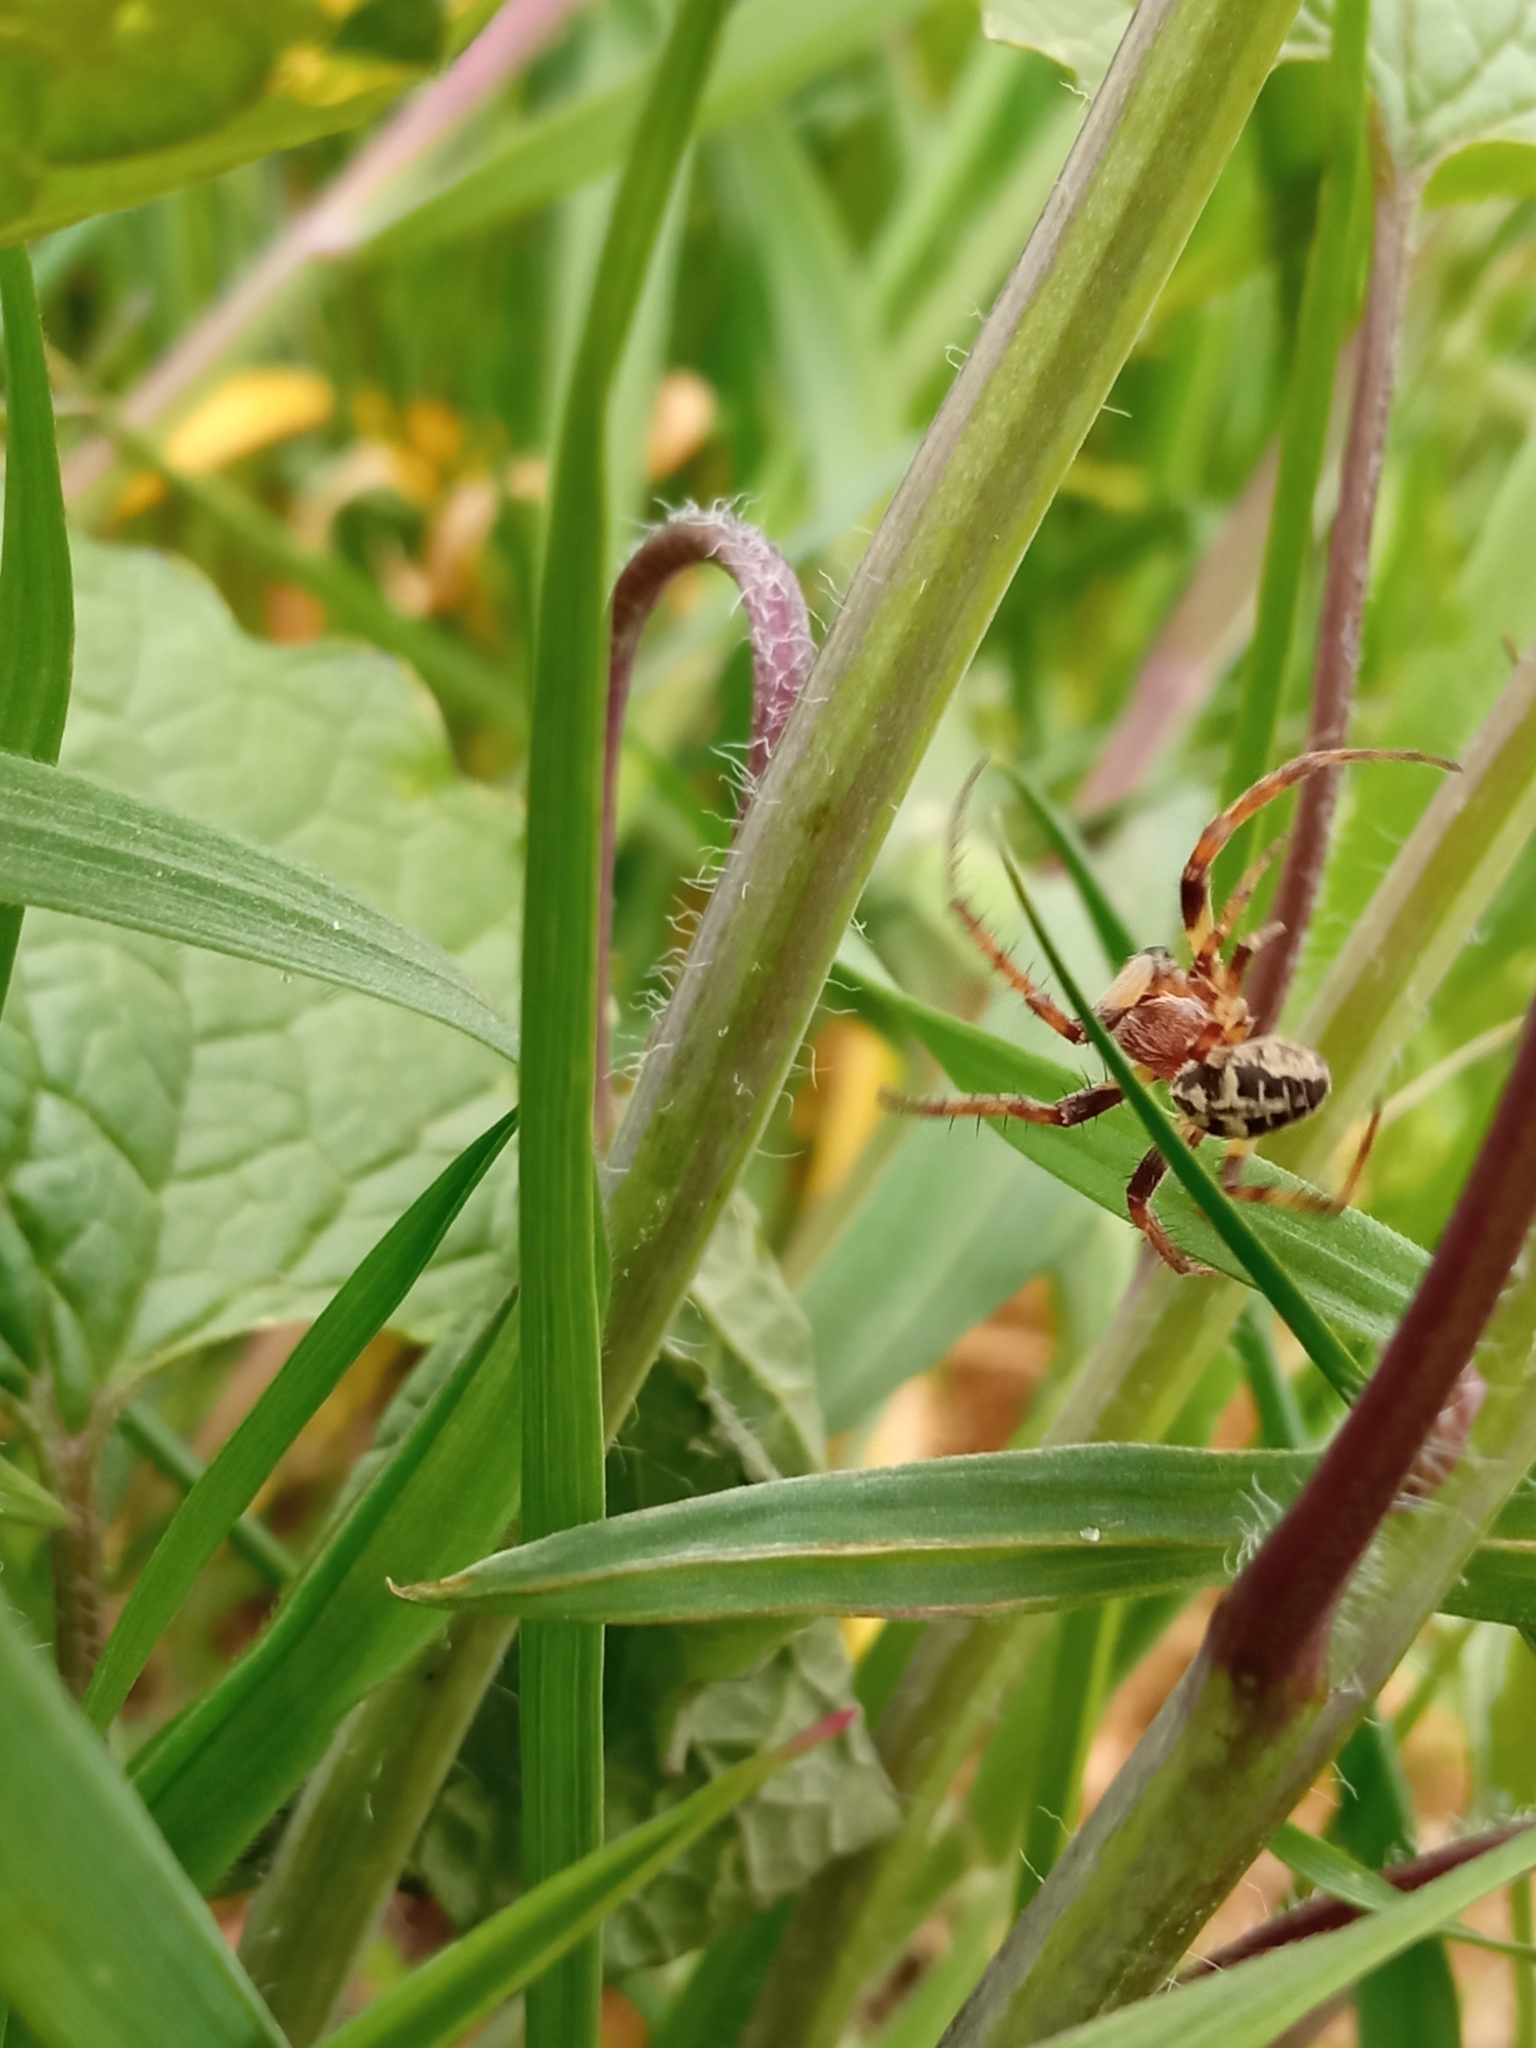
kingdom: Animalia
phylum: Arthropoda
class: Arachnida
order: Araneae
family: Araneidae
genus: Larinioides
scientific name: Larinioides cornutus
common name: Furrow orbweaver
